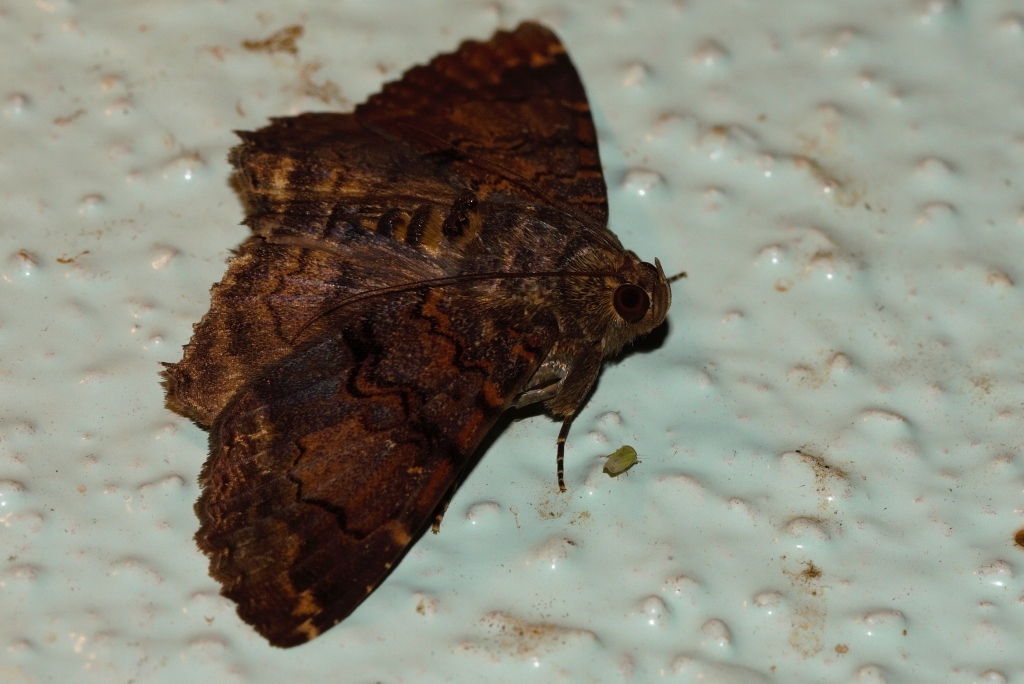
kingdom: Animalia
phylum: Arthropoda
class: Insecta
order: Lepidoptera
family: Erebidae
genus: Diatenes
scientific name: Diatenes chalybescens
